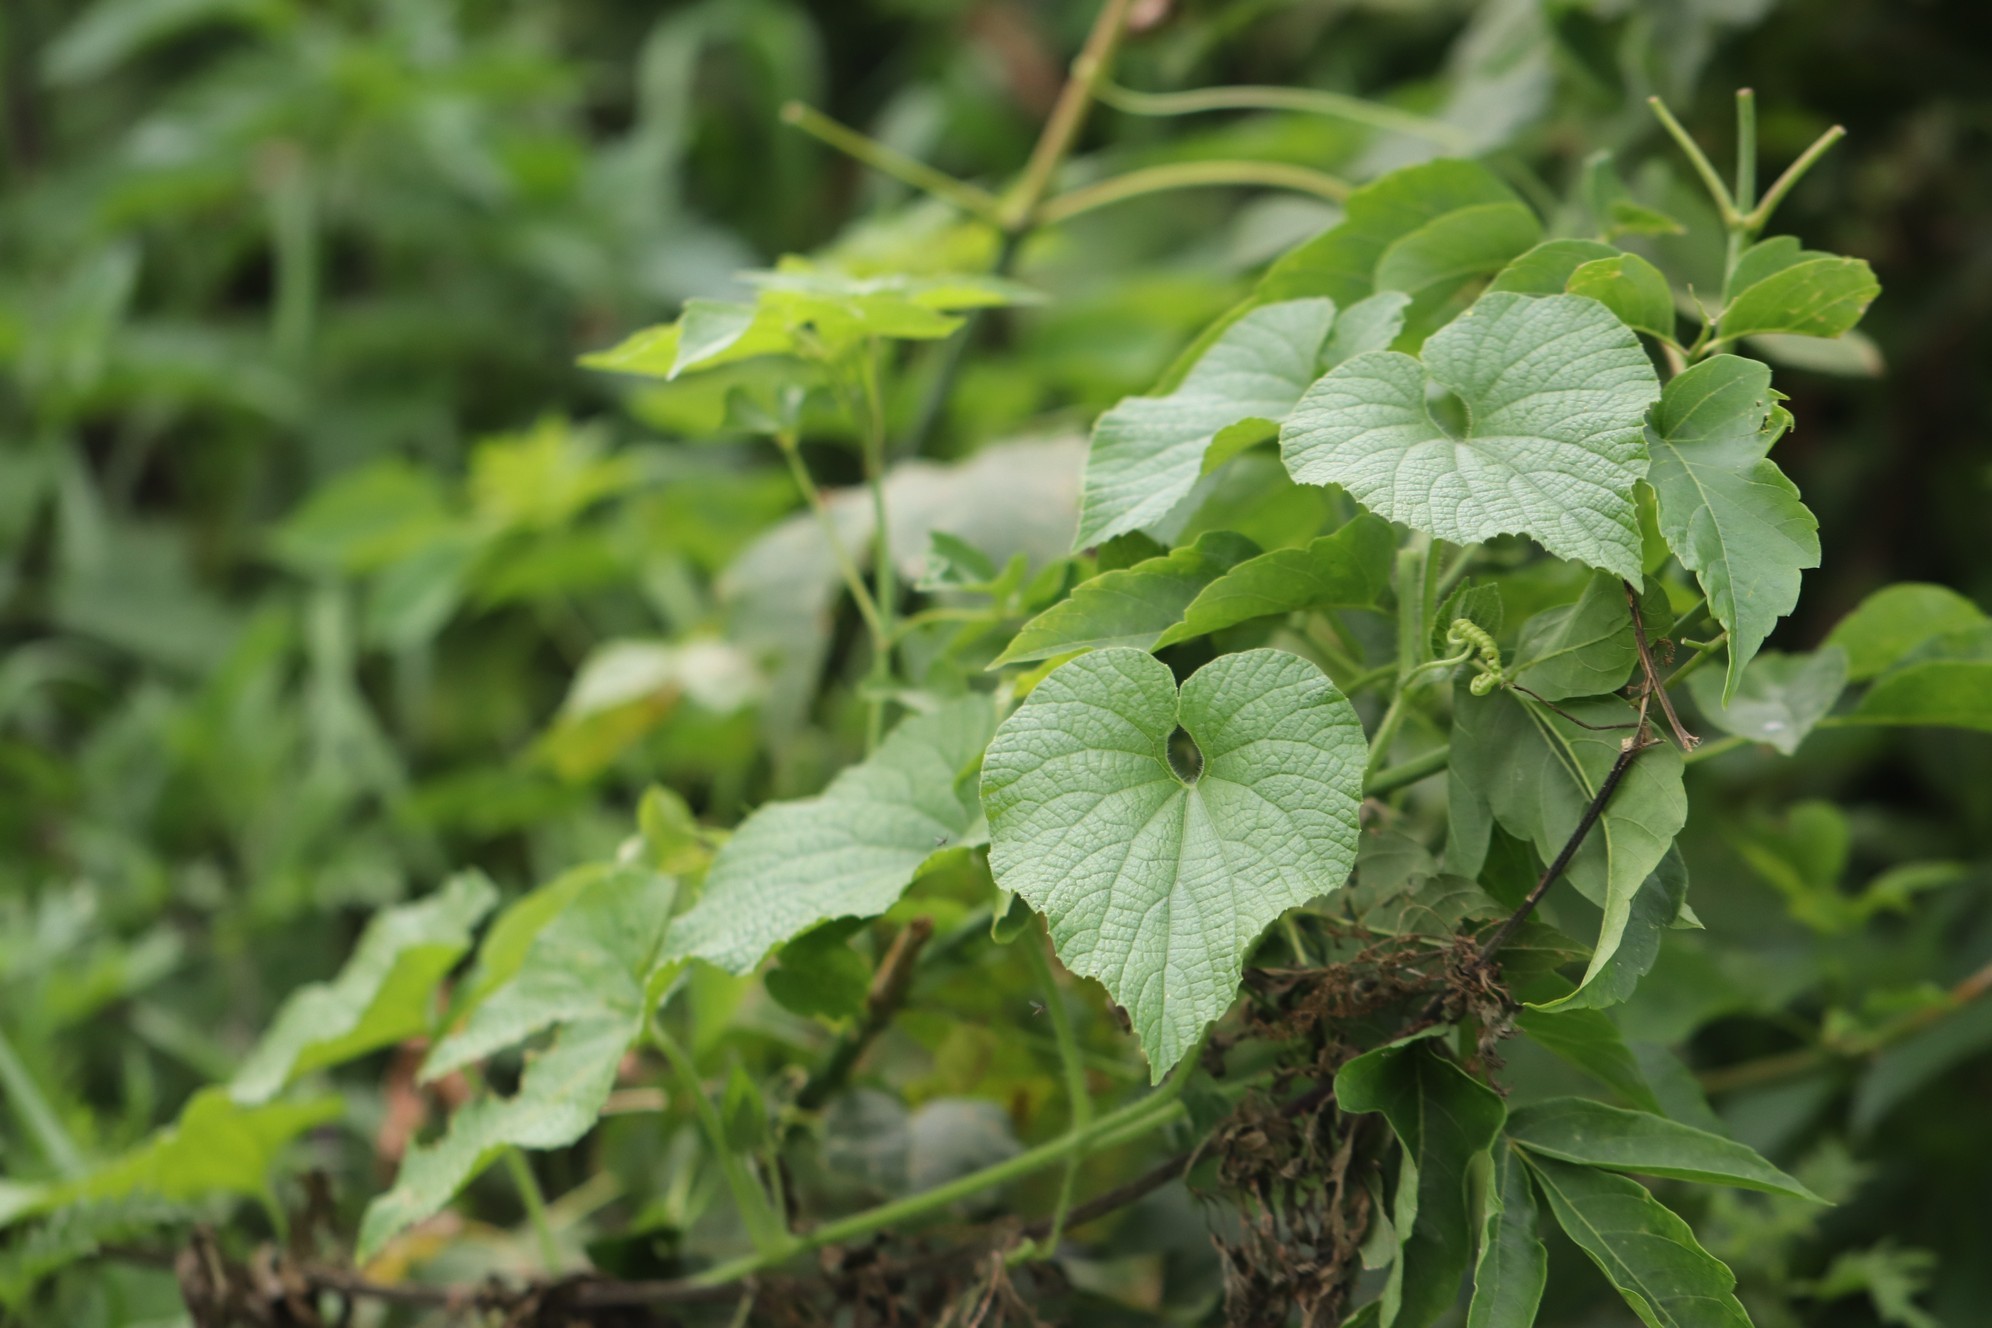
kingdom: Plantae
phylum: Tracheophyta
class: Magnoliopsida
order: Cucurbitales
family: Cucurbitaceae
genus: Thladiantha
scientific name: Thladiantha dubia
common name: Manchu tubergourd
